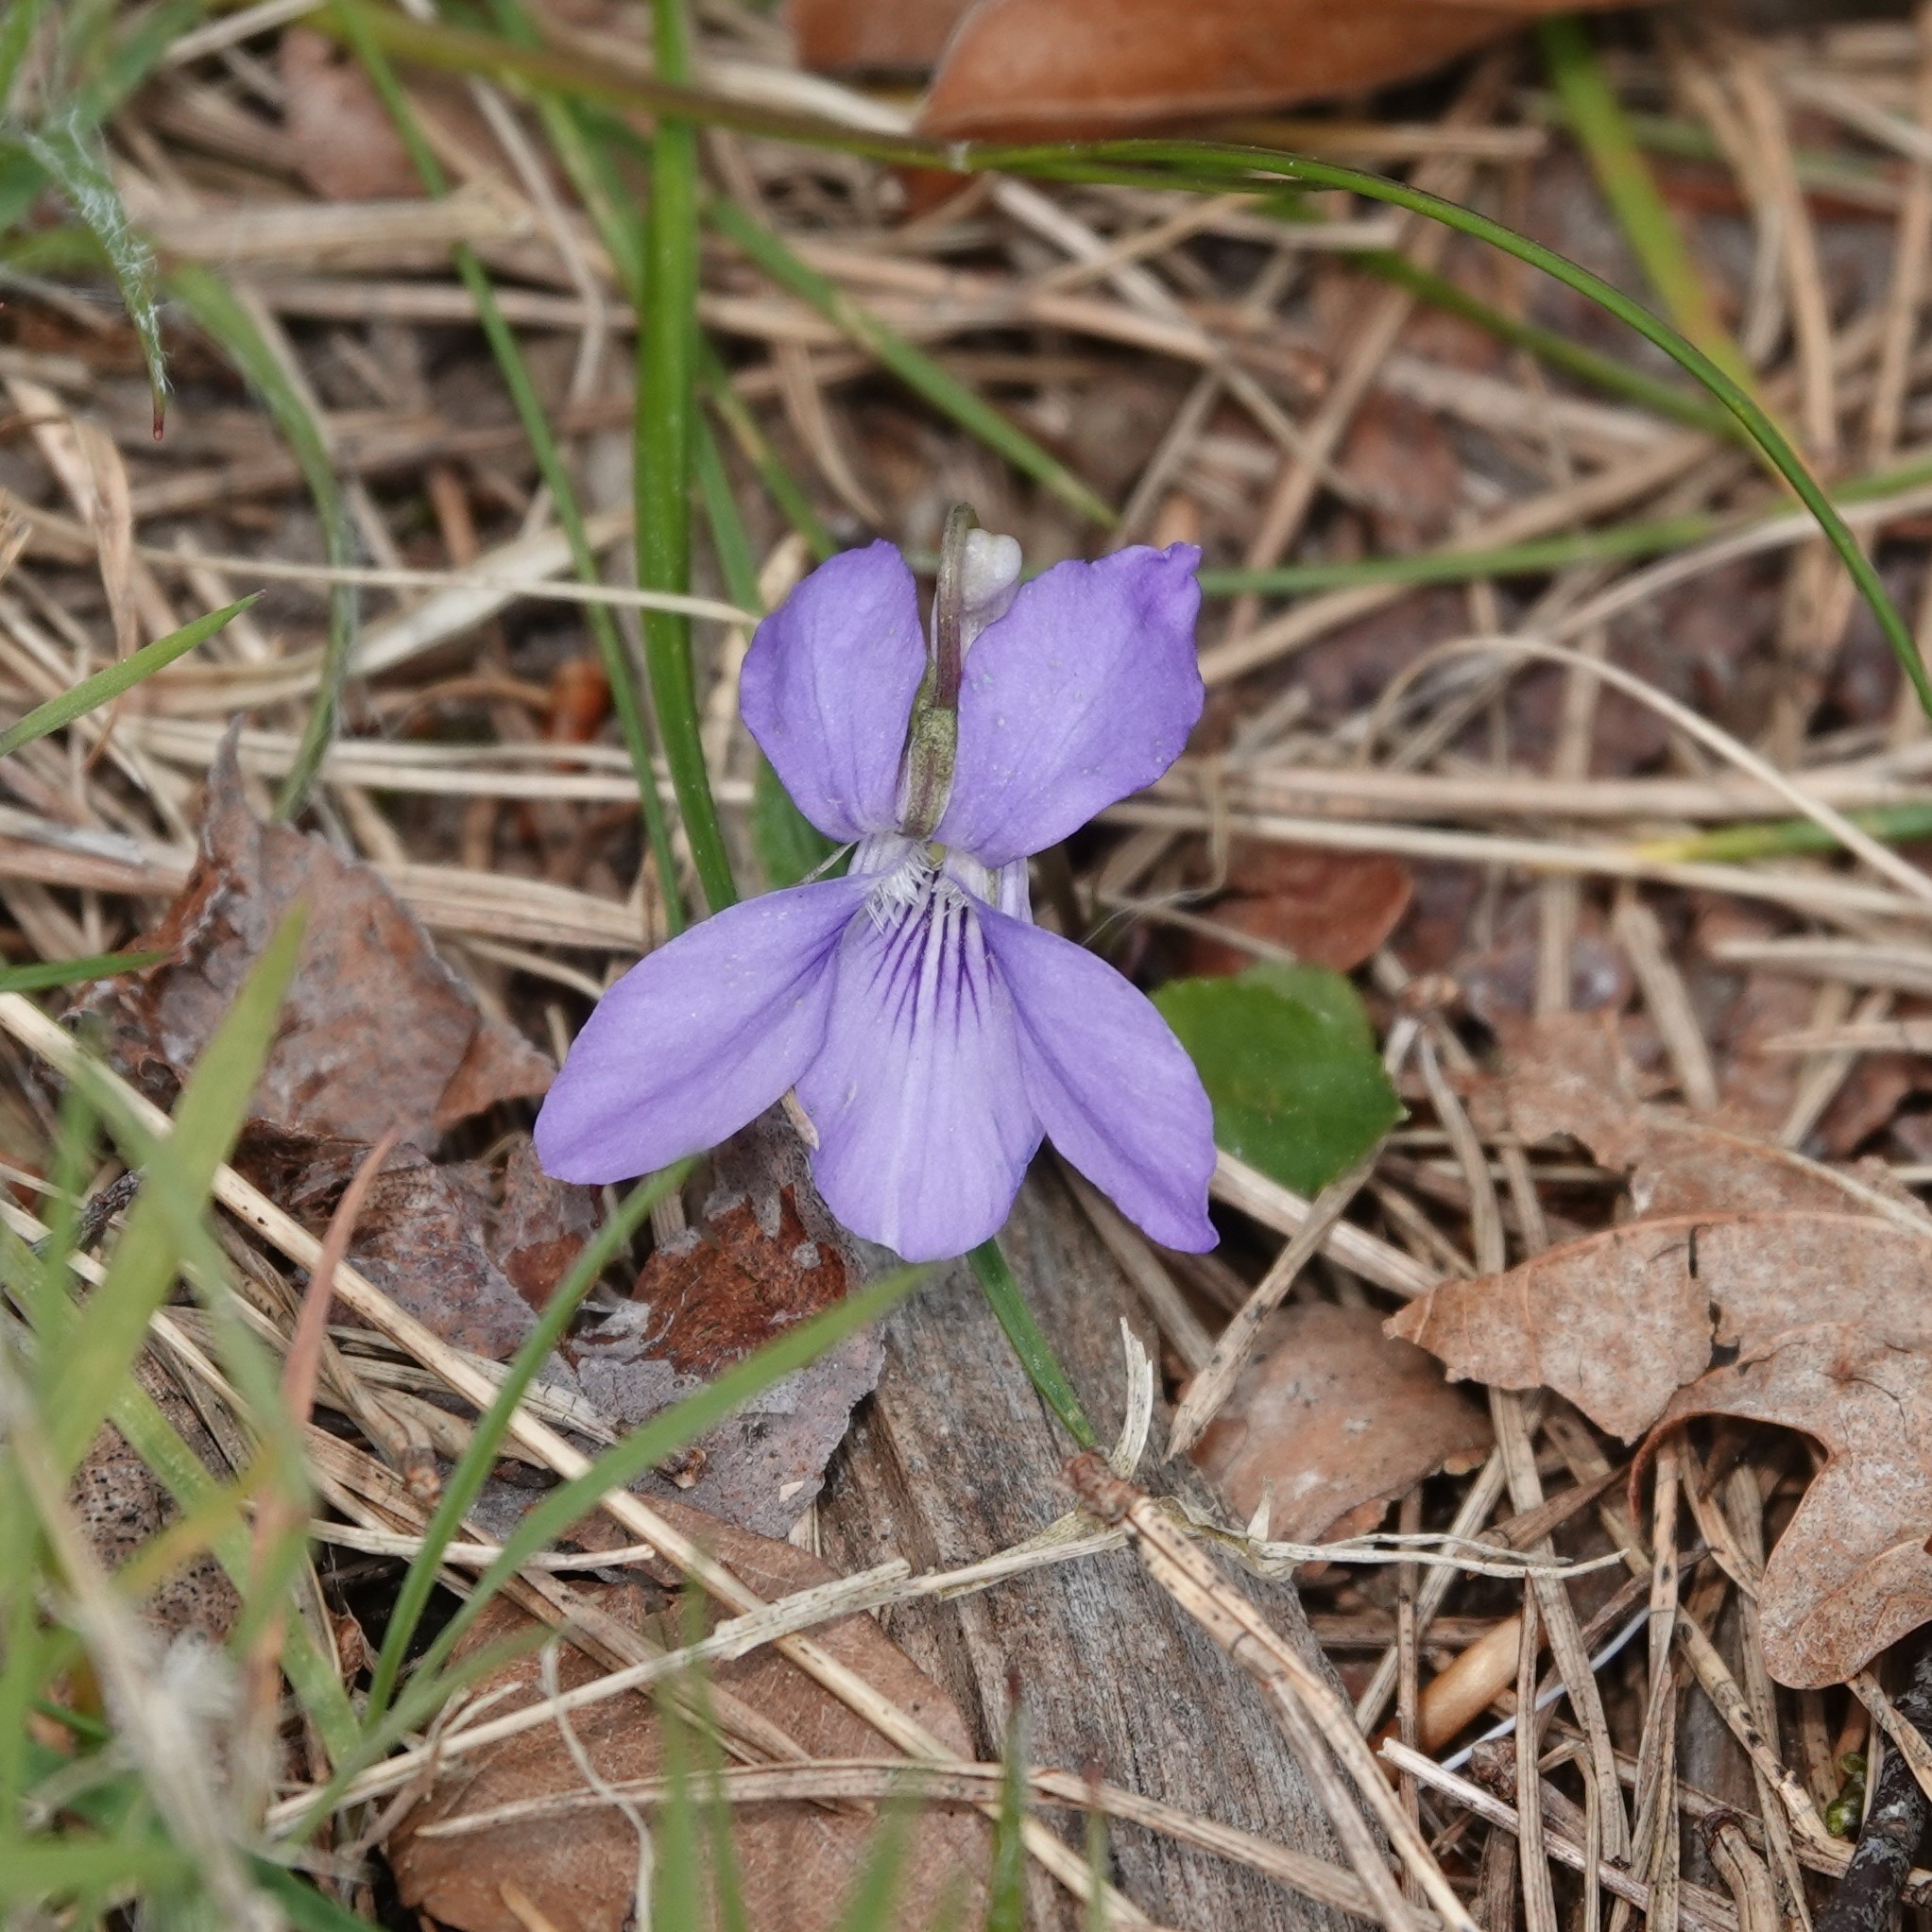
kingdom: Plantae
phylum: Tracheophyta
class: Magnoliopsida
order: Malpighiales
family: Violaceae
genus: Viola
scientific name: Viola riviniana
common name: Common dog-violet
